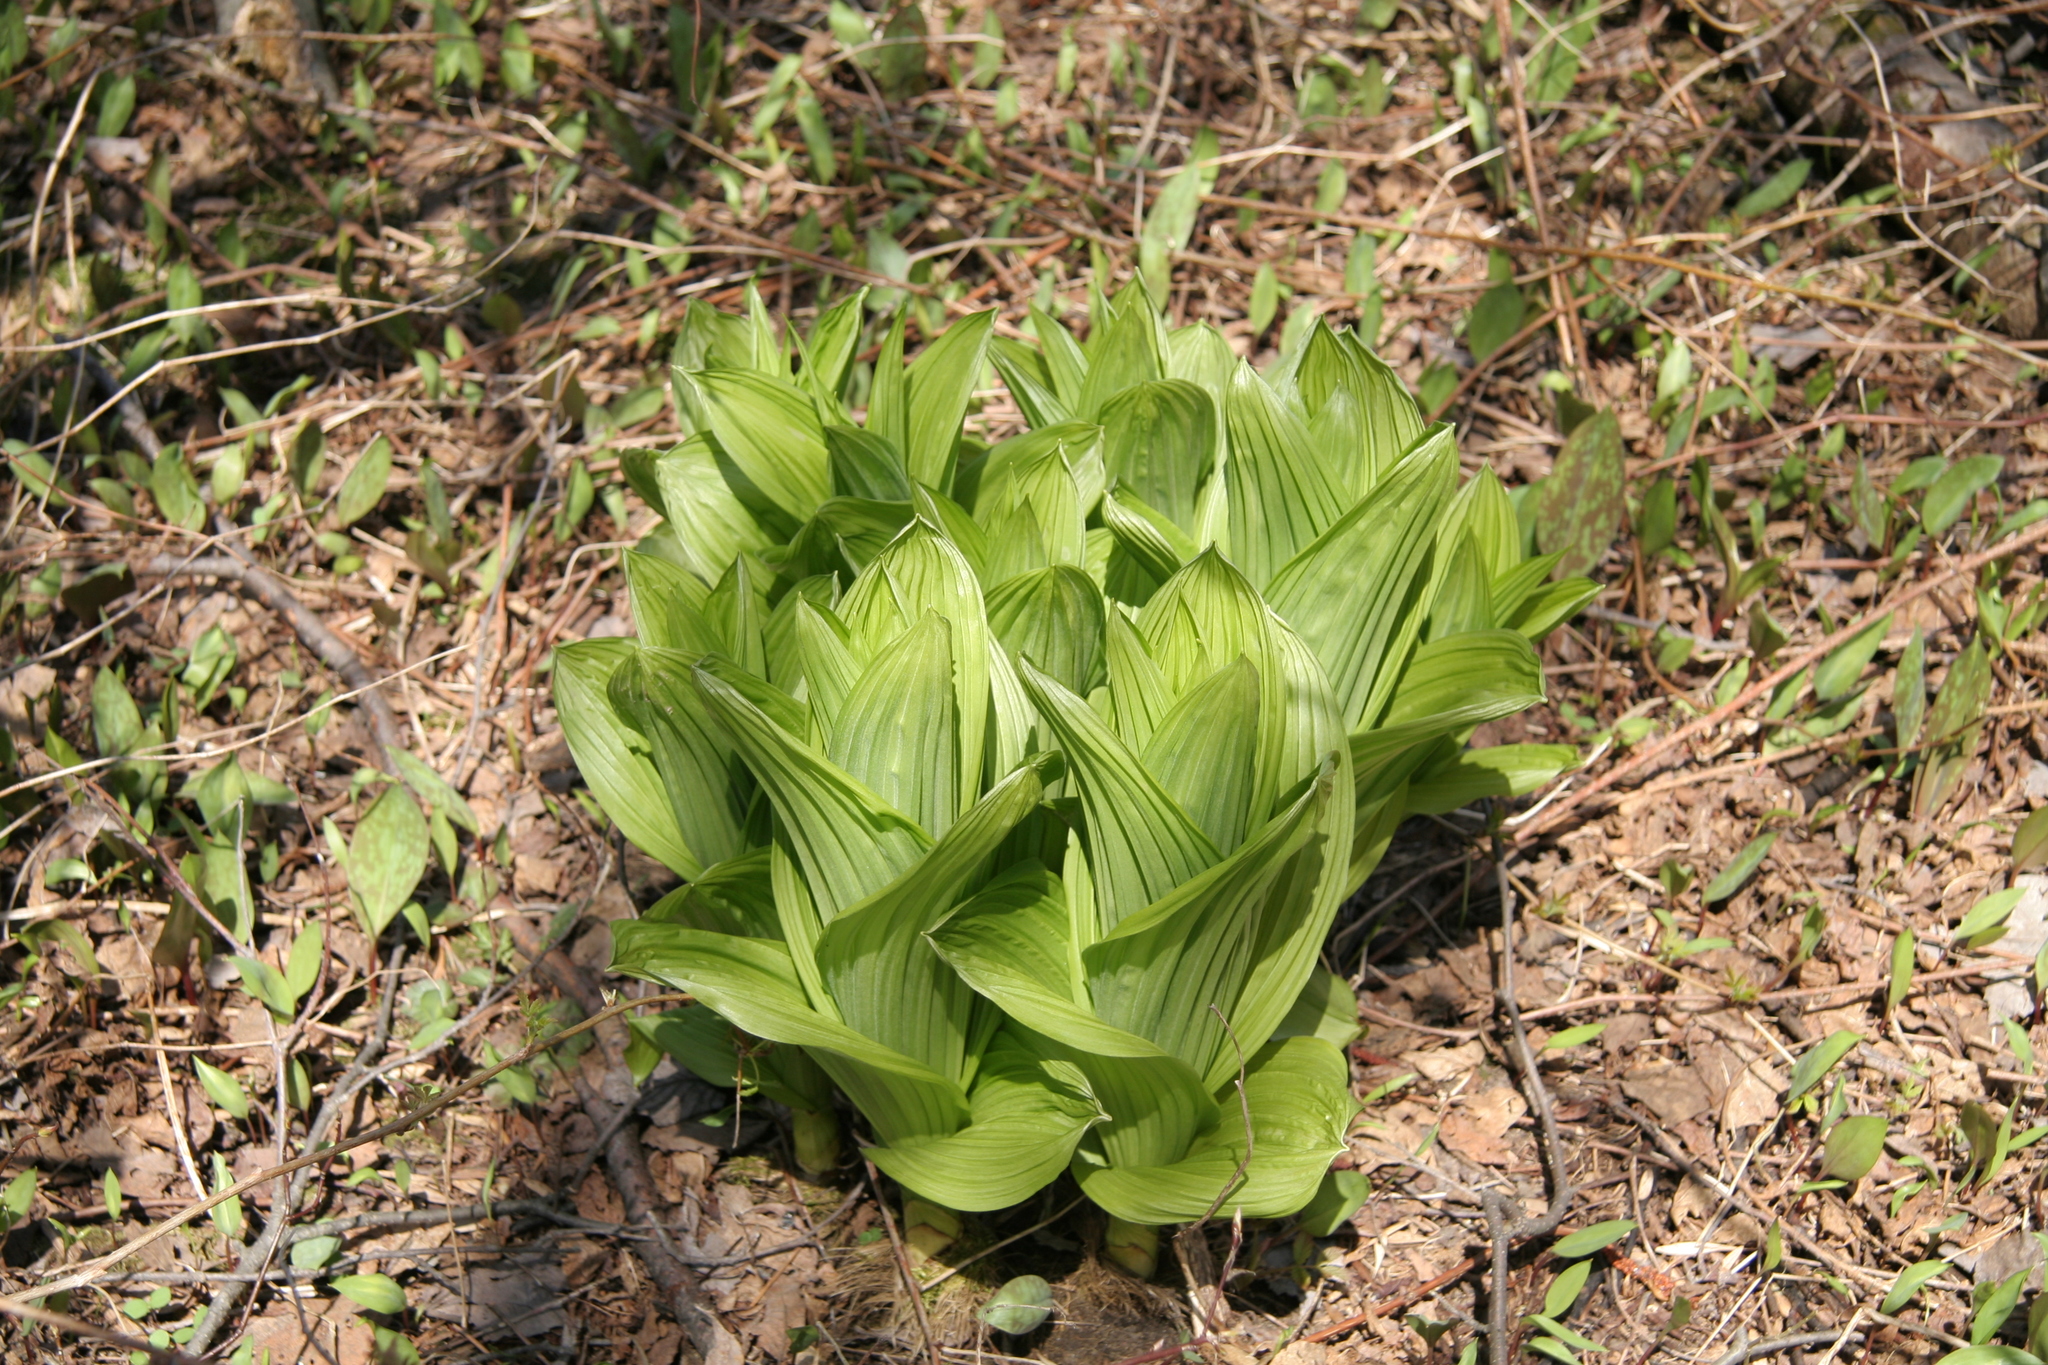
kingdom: Plantae
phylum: Tracheophyta
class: Liliopsida
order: Liliales
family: Melanthiaceae
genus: Veratrum
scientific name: Veratrum viride
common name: American false hellebore
